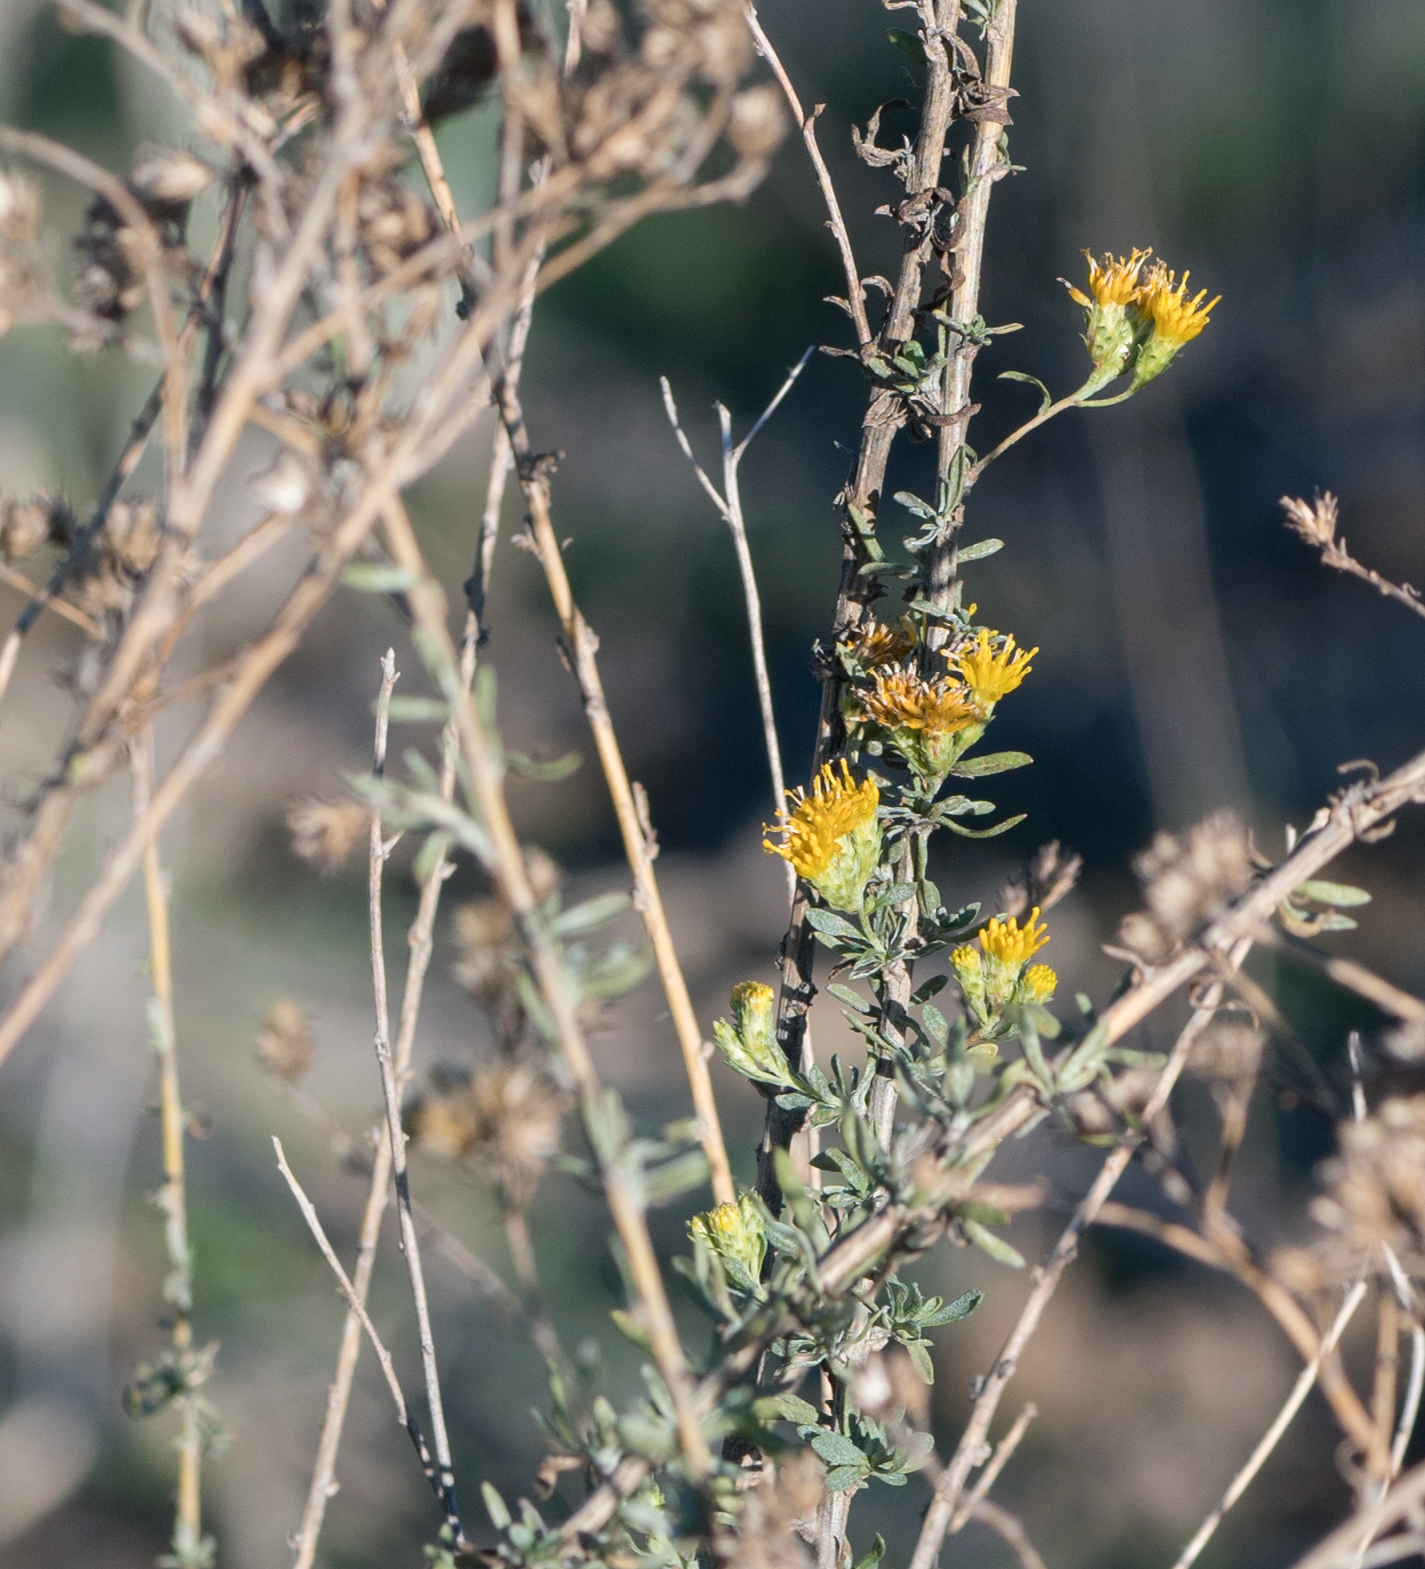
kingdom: Plantae
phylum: Tracheophyta
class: Magnoliopsida
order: Asterales
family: Asteraceae
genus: Isocoma
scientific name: Isocoma menziesii
